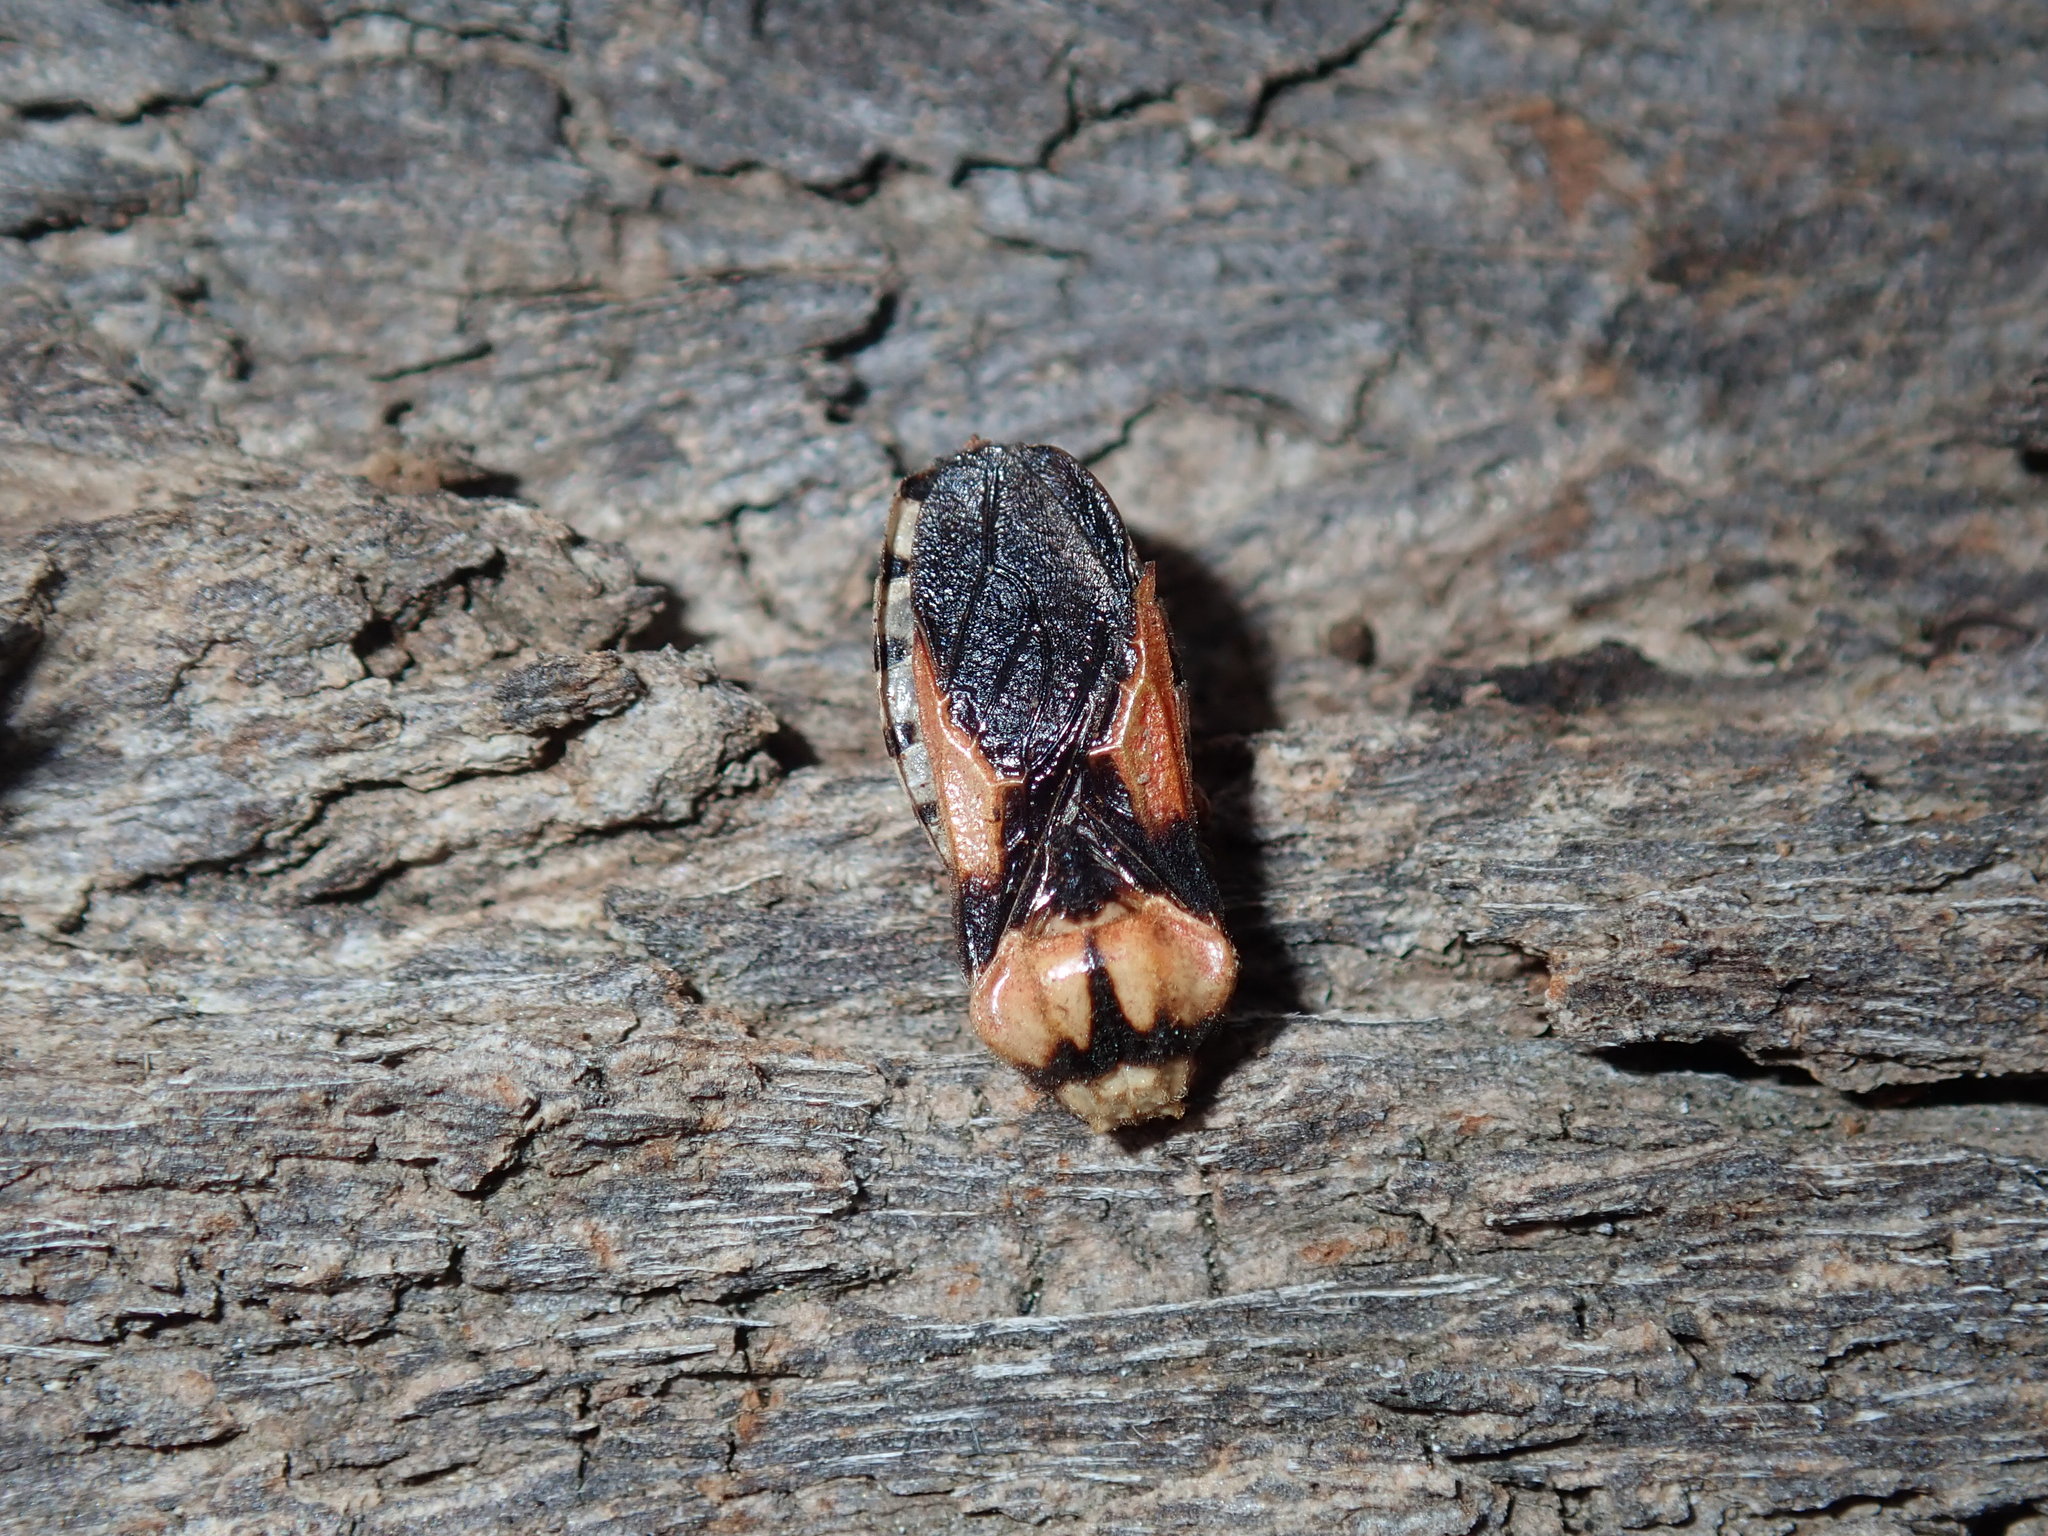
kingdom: Animalia
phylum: Arthropoda
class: Insecta
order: Hemiptera
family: Reduviidae
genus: Tegea
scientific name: Tegea atropicta
